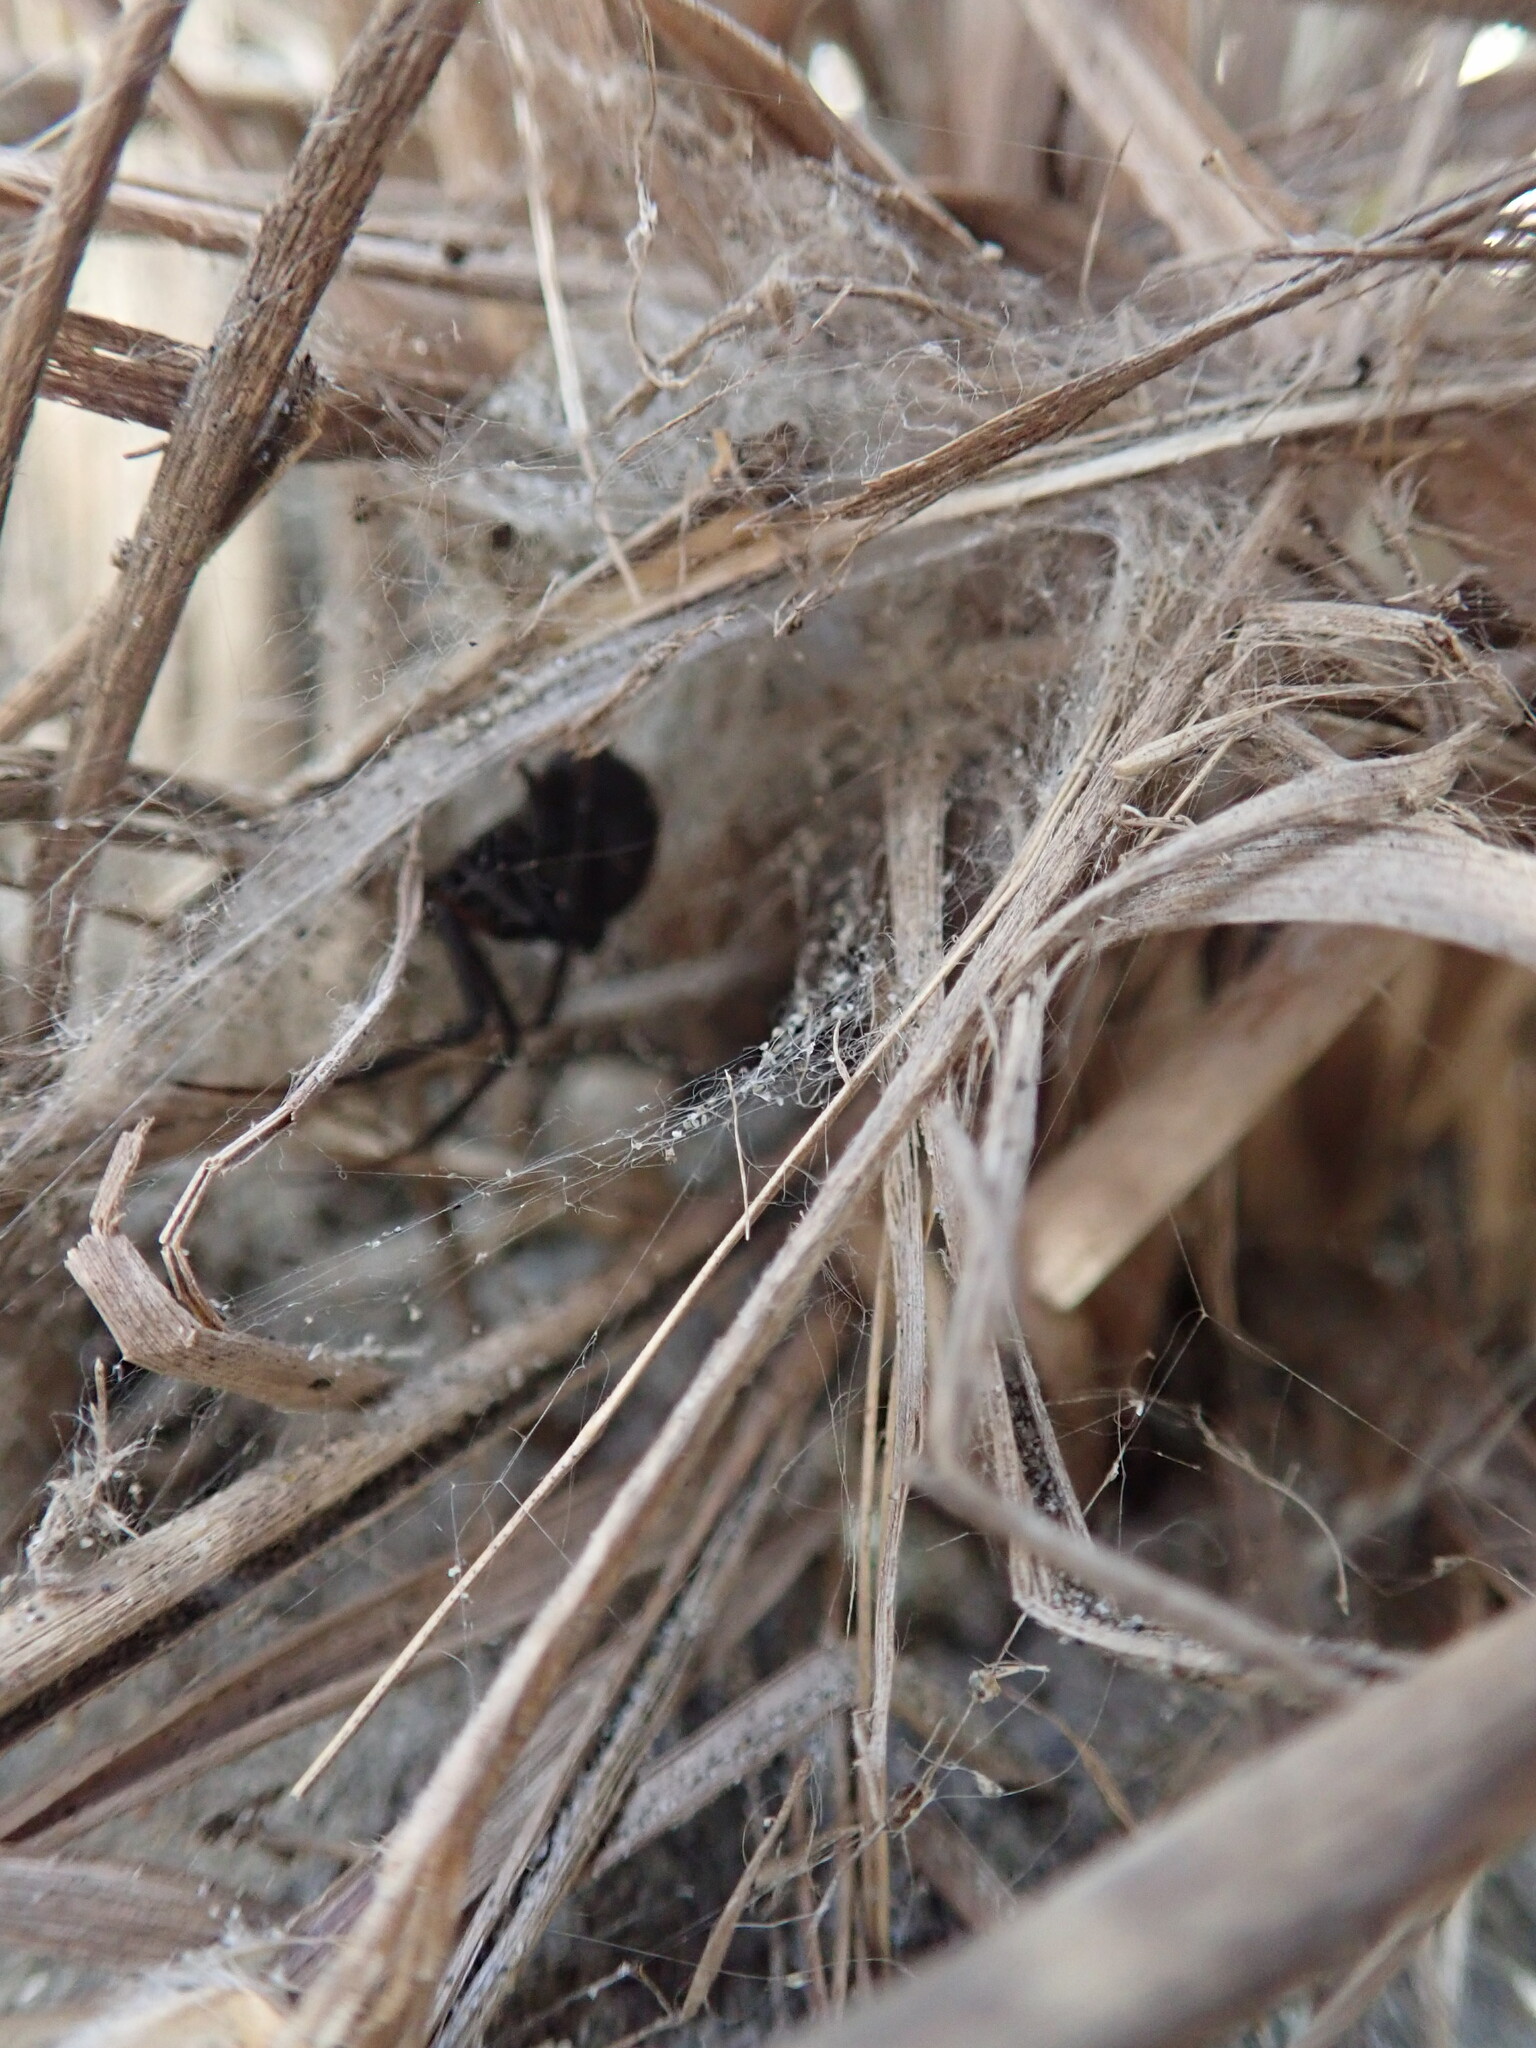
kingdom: Animalia
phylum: Arthropoda
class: Arachnida
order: Araneae
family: Theridiidae
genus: Latrodectus
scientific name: Latrodectus katipo
